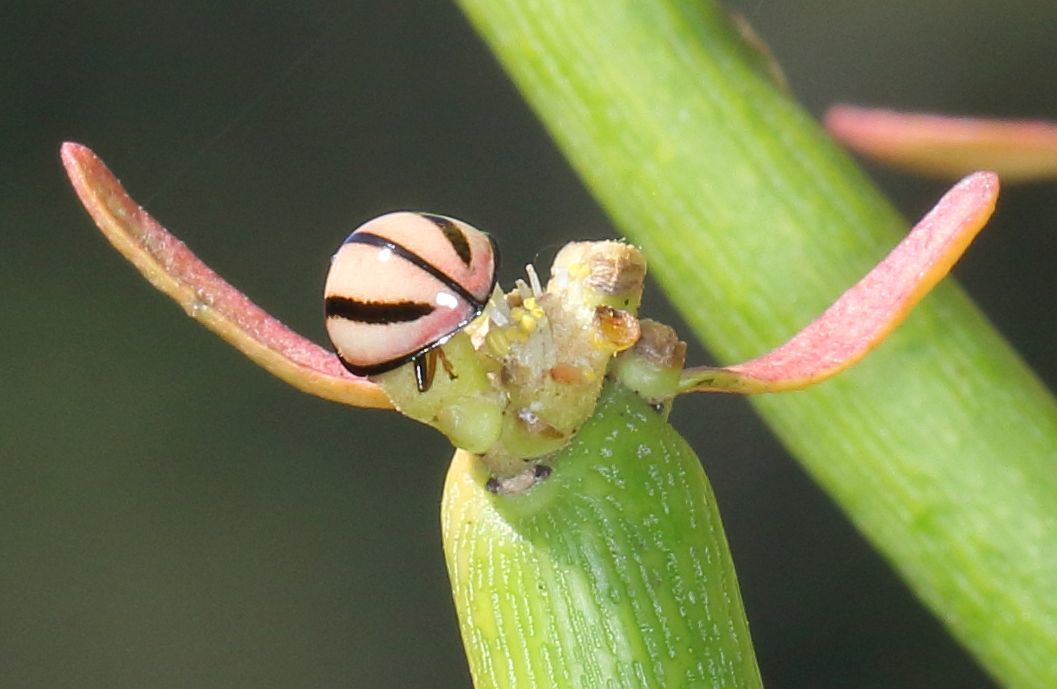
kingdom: Animalia
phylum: Arthropoda
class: Insecta
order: Coleoptera
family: Coccinellidae
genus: Declivitata
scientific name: Declivitata
